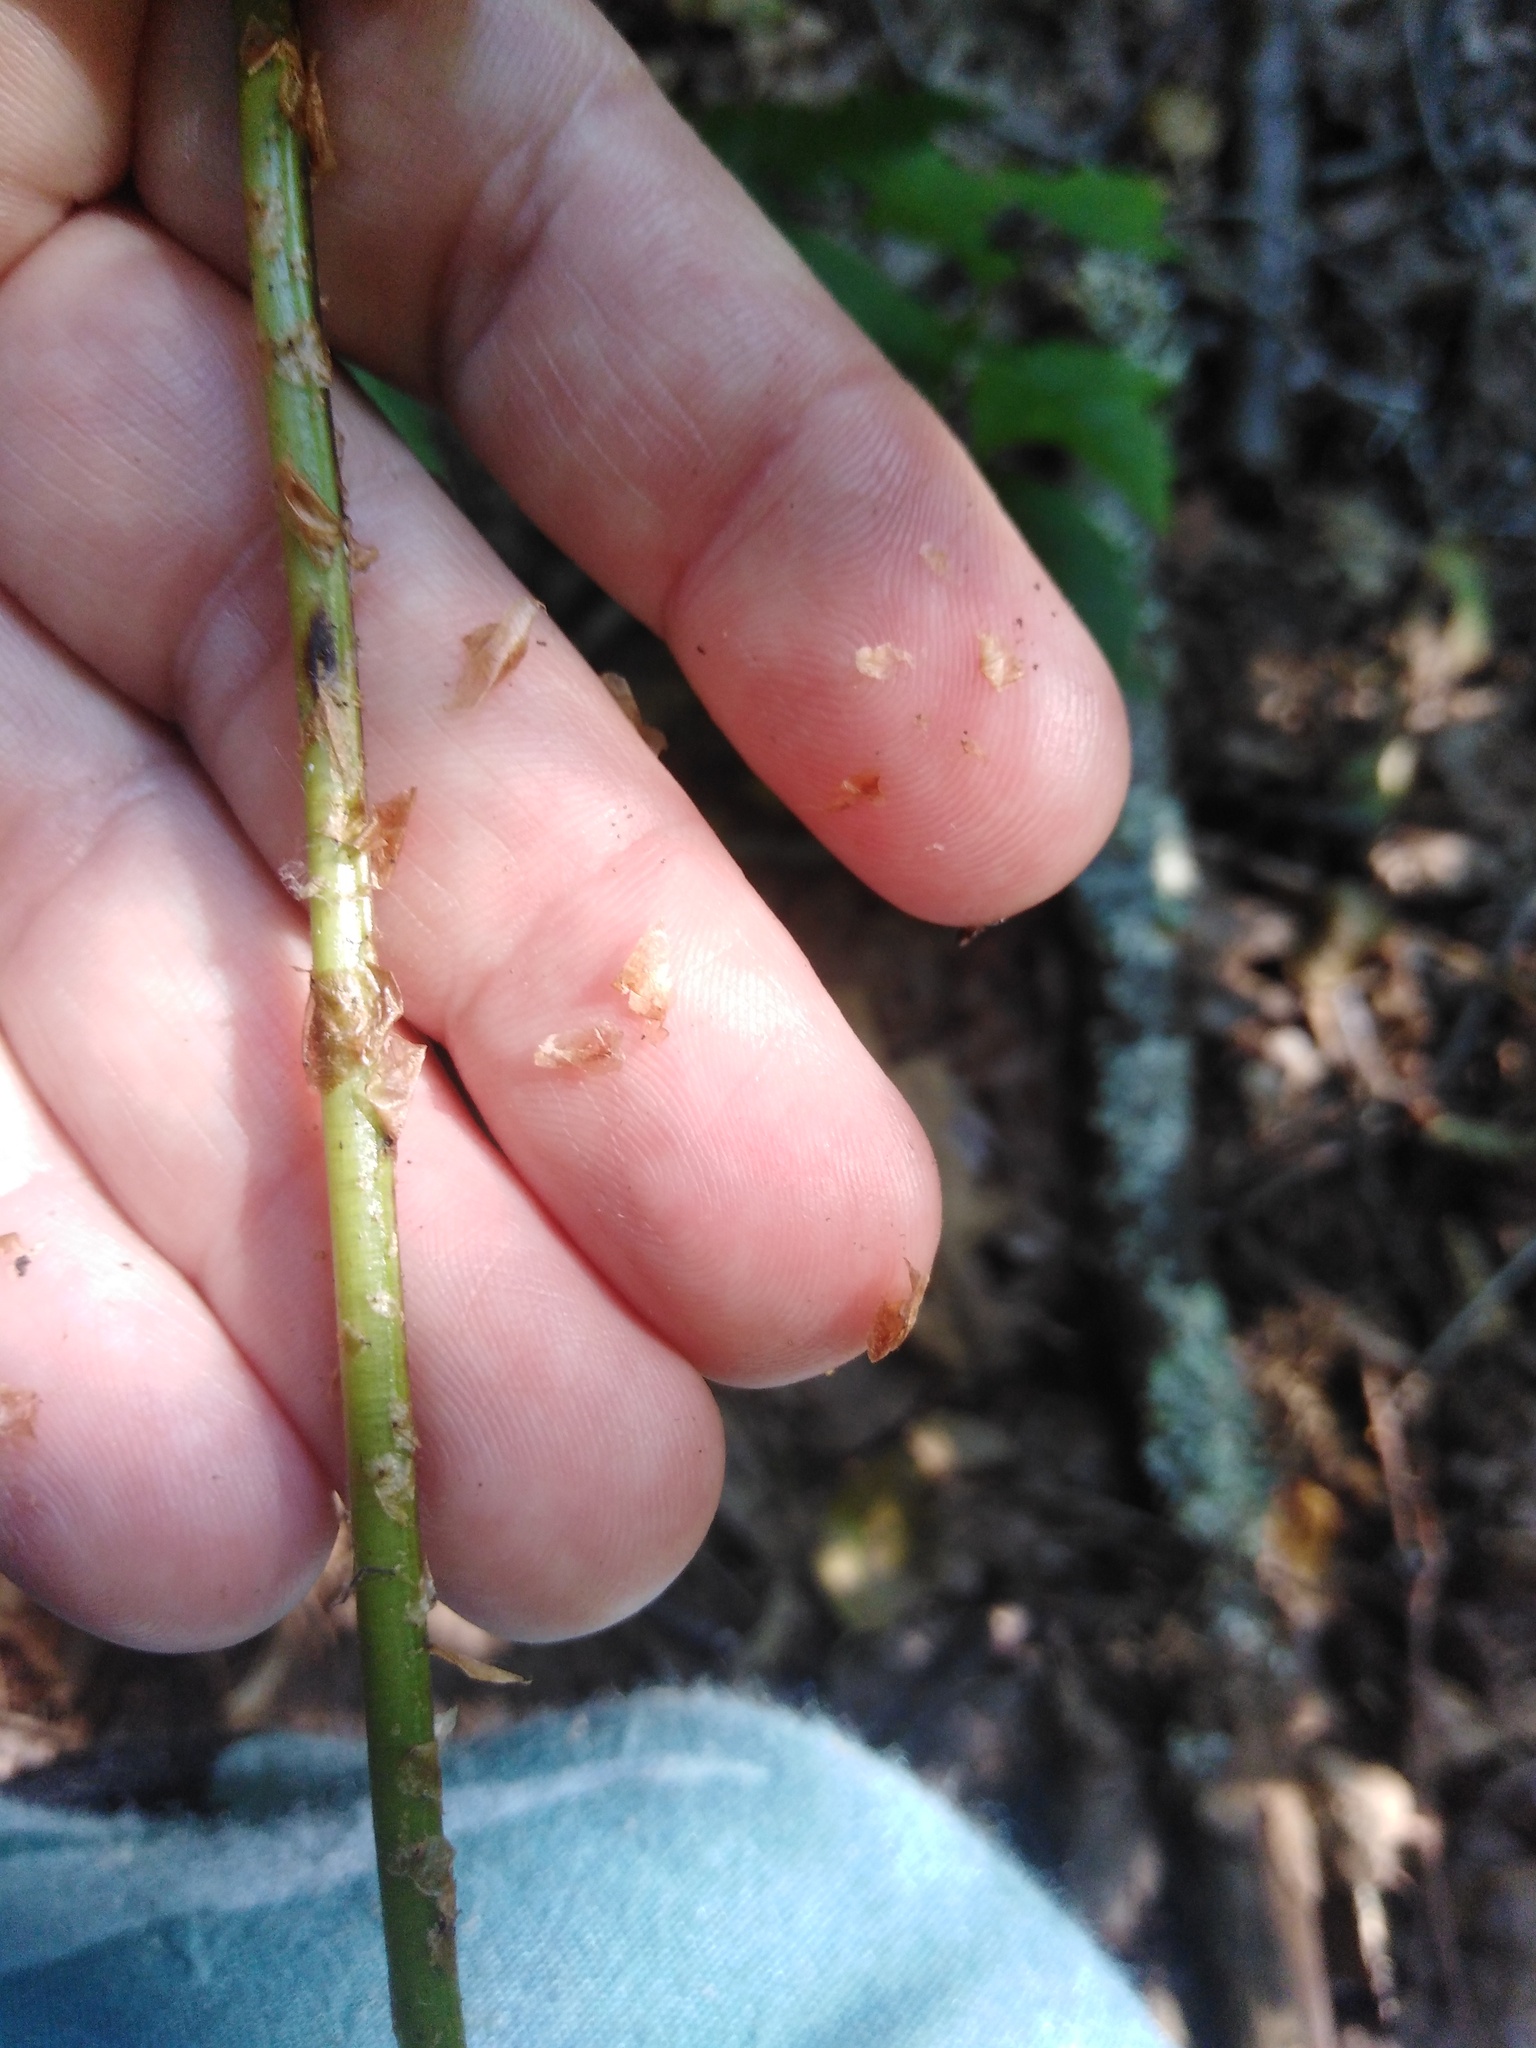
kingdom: Plantae
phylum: Tracheophyta
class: Polypodiopsida
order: Polypodiales
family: Dryopteridaceae
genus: Dryopteris
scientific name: Dryopteris carthusiana
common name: Narrow buckler-fern
